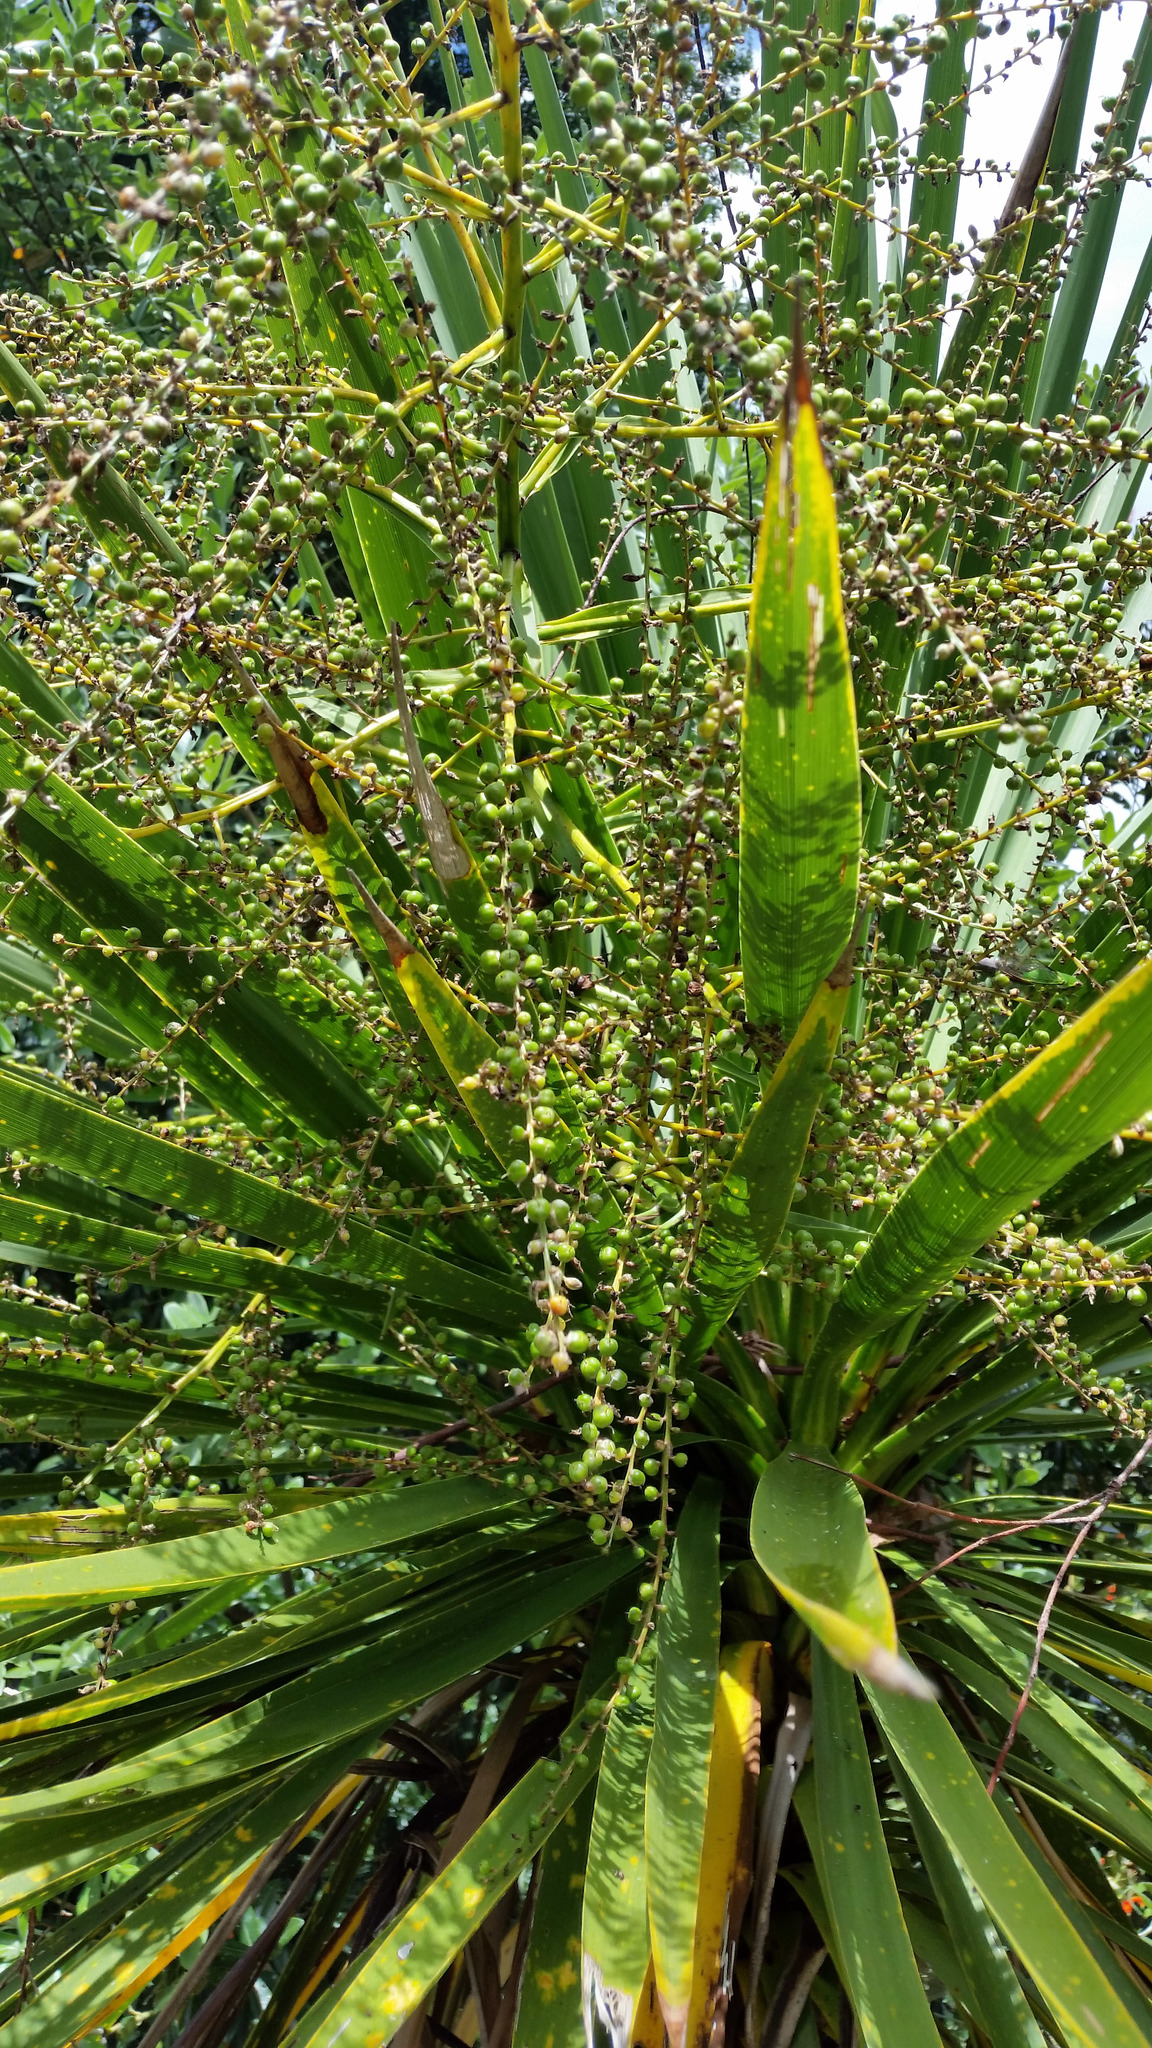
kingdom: Plantae
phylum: Tracheophyta
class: Liliopsida
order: Asparagales
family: Asparagaceae
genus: Cordyline
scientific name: Cordyline australis
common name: Cabbage-palm
